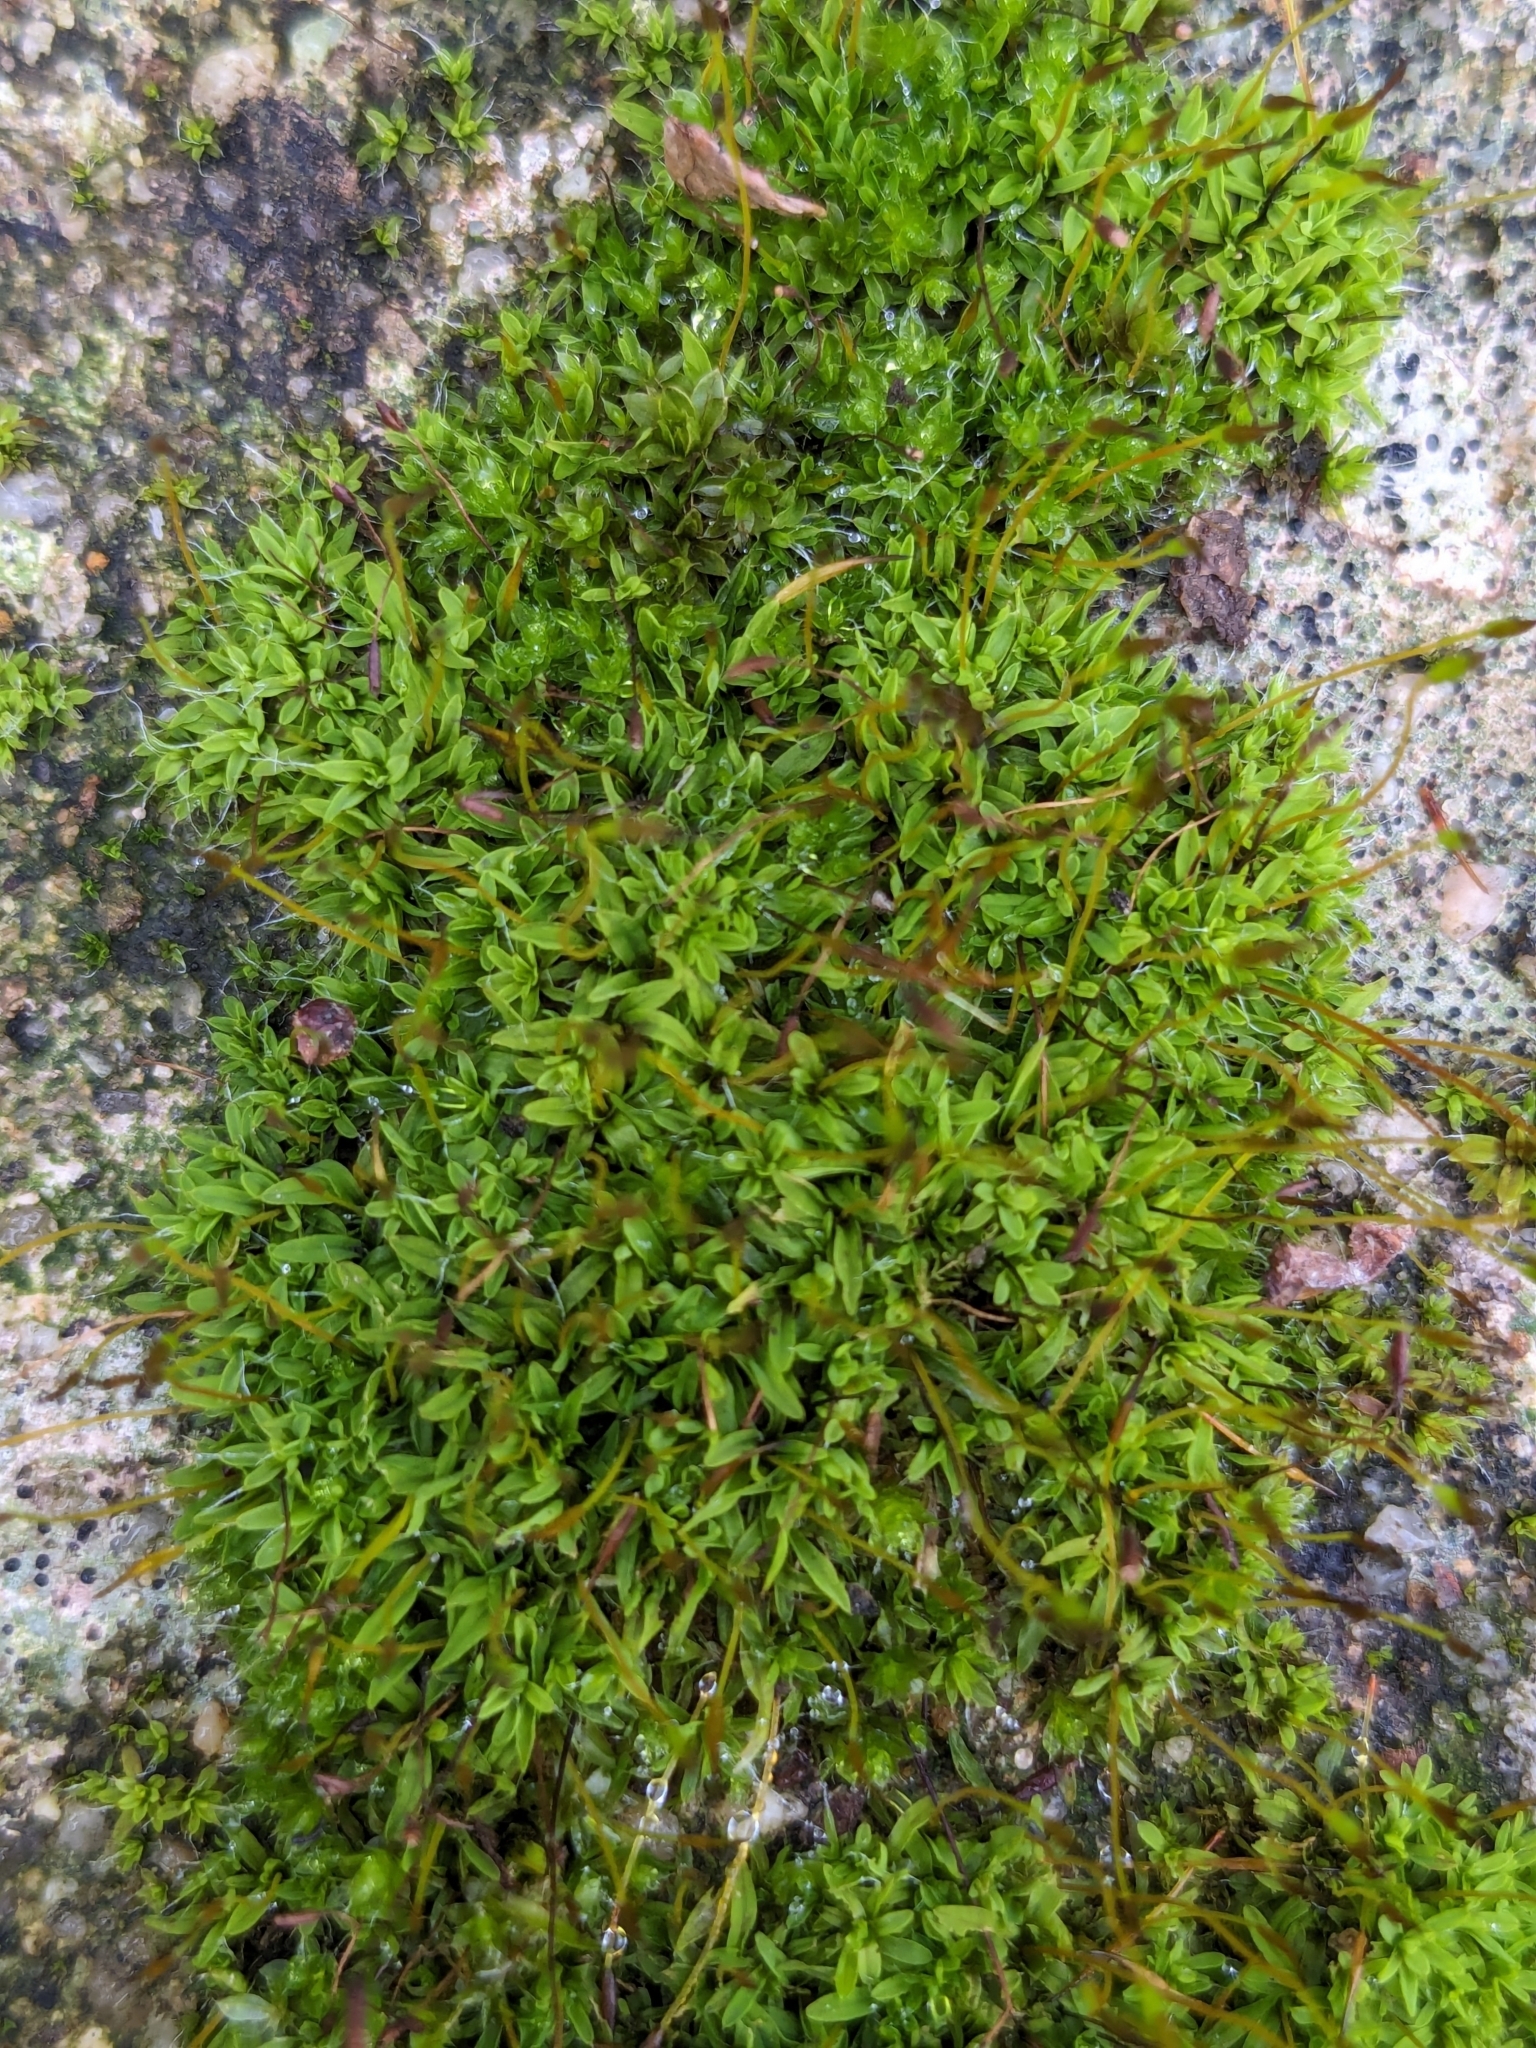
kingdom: Plantae
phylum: Bryophyta
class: Bryopsida
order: Pottiales
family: Pottiaceae
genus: Tortula
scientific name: Tortula muralis
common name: Wall screw-moss
